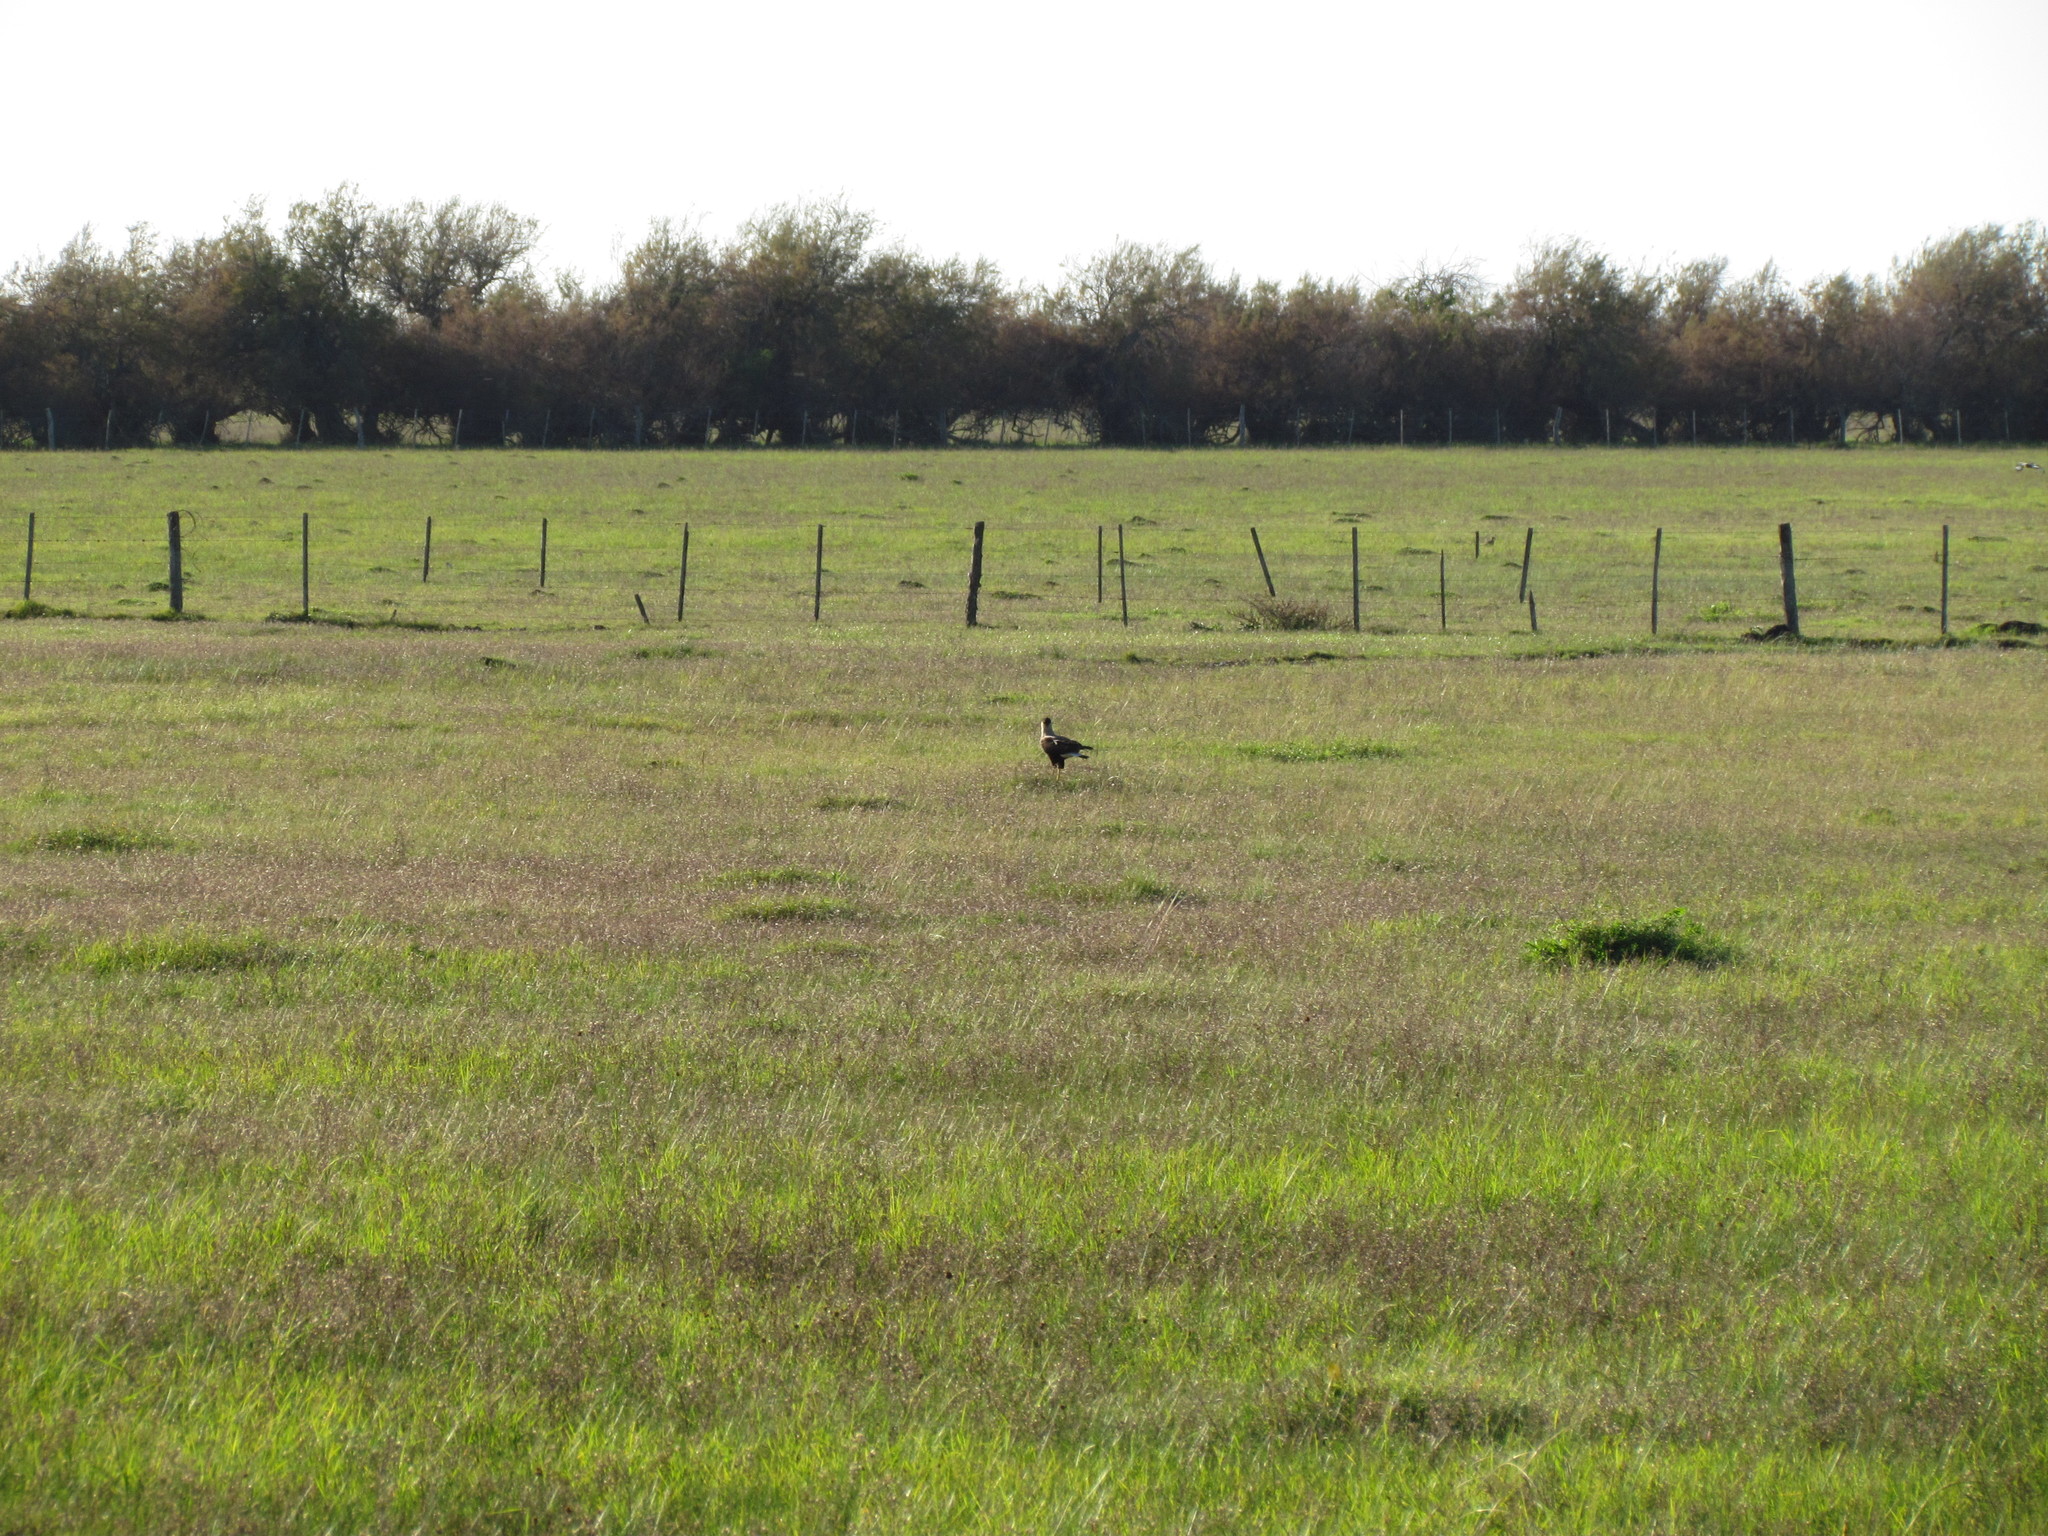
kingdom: Animalia
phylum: Chordata
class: Aves
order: Falconiformes
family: Falconidae
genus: Caracara
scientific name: Caracara plancus
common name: Southern caracara
